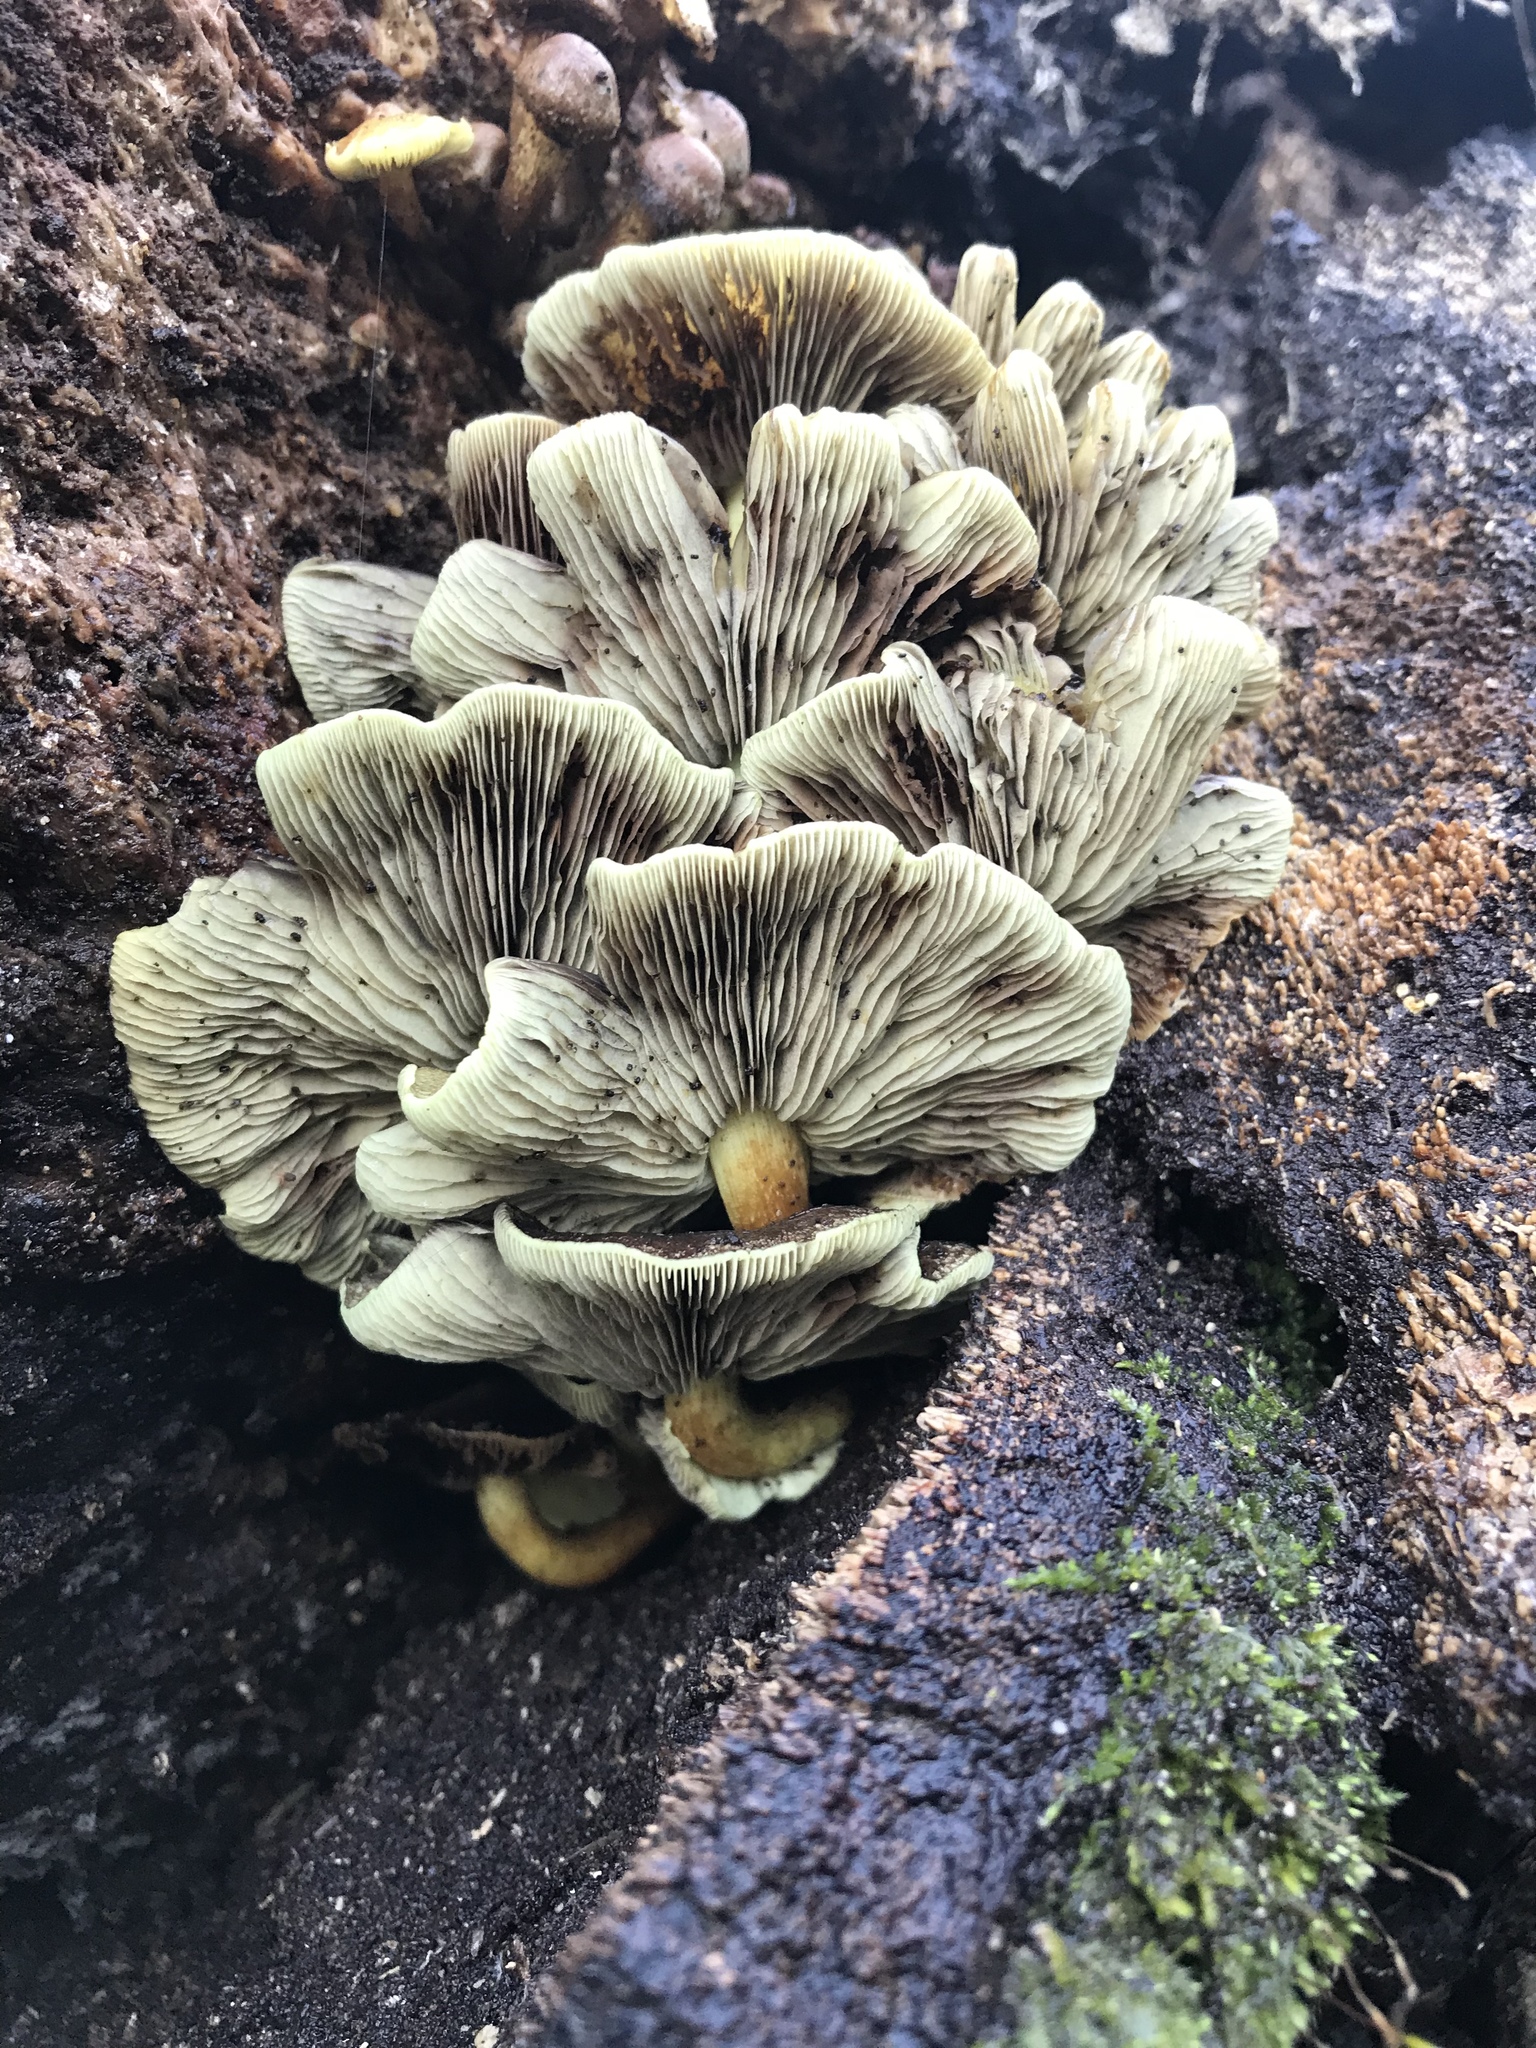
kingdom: Fungi
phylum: Basidiomycota
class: Agaricomycetes
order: Agaricales
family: Strophariaceae
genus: Hypholoma
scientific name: Hypholoma fasciculare
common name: Sulphur tuft
